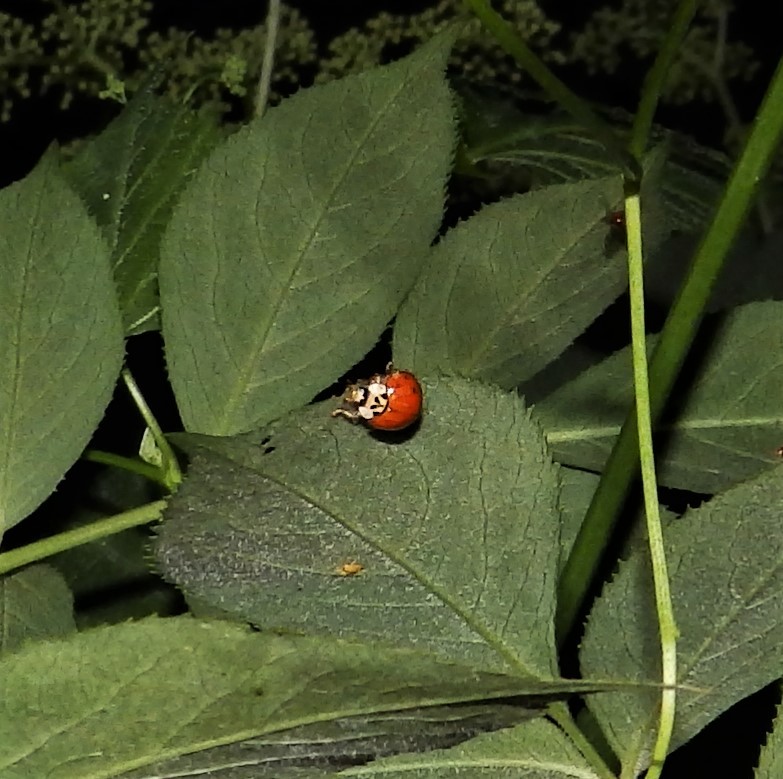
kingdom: Animalia
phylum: Arthropoda
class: Insecta
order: Coleoptera
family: Coccinellidae
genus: Harmonia
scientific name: Harmonia axyridis
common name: Harlequin ladybird
